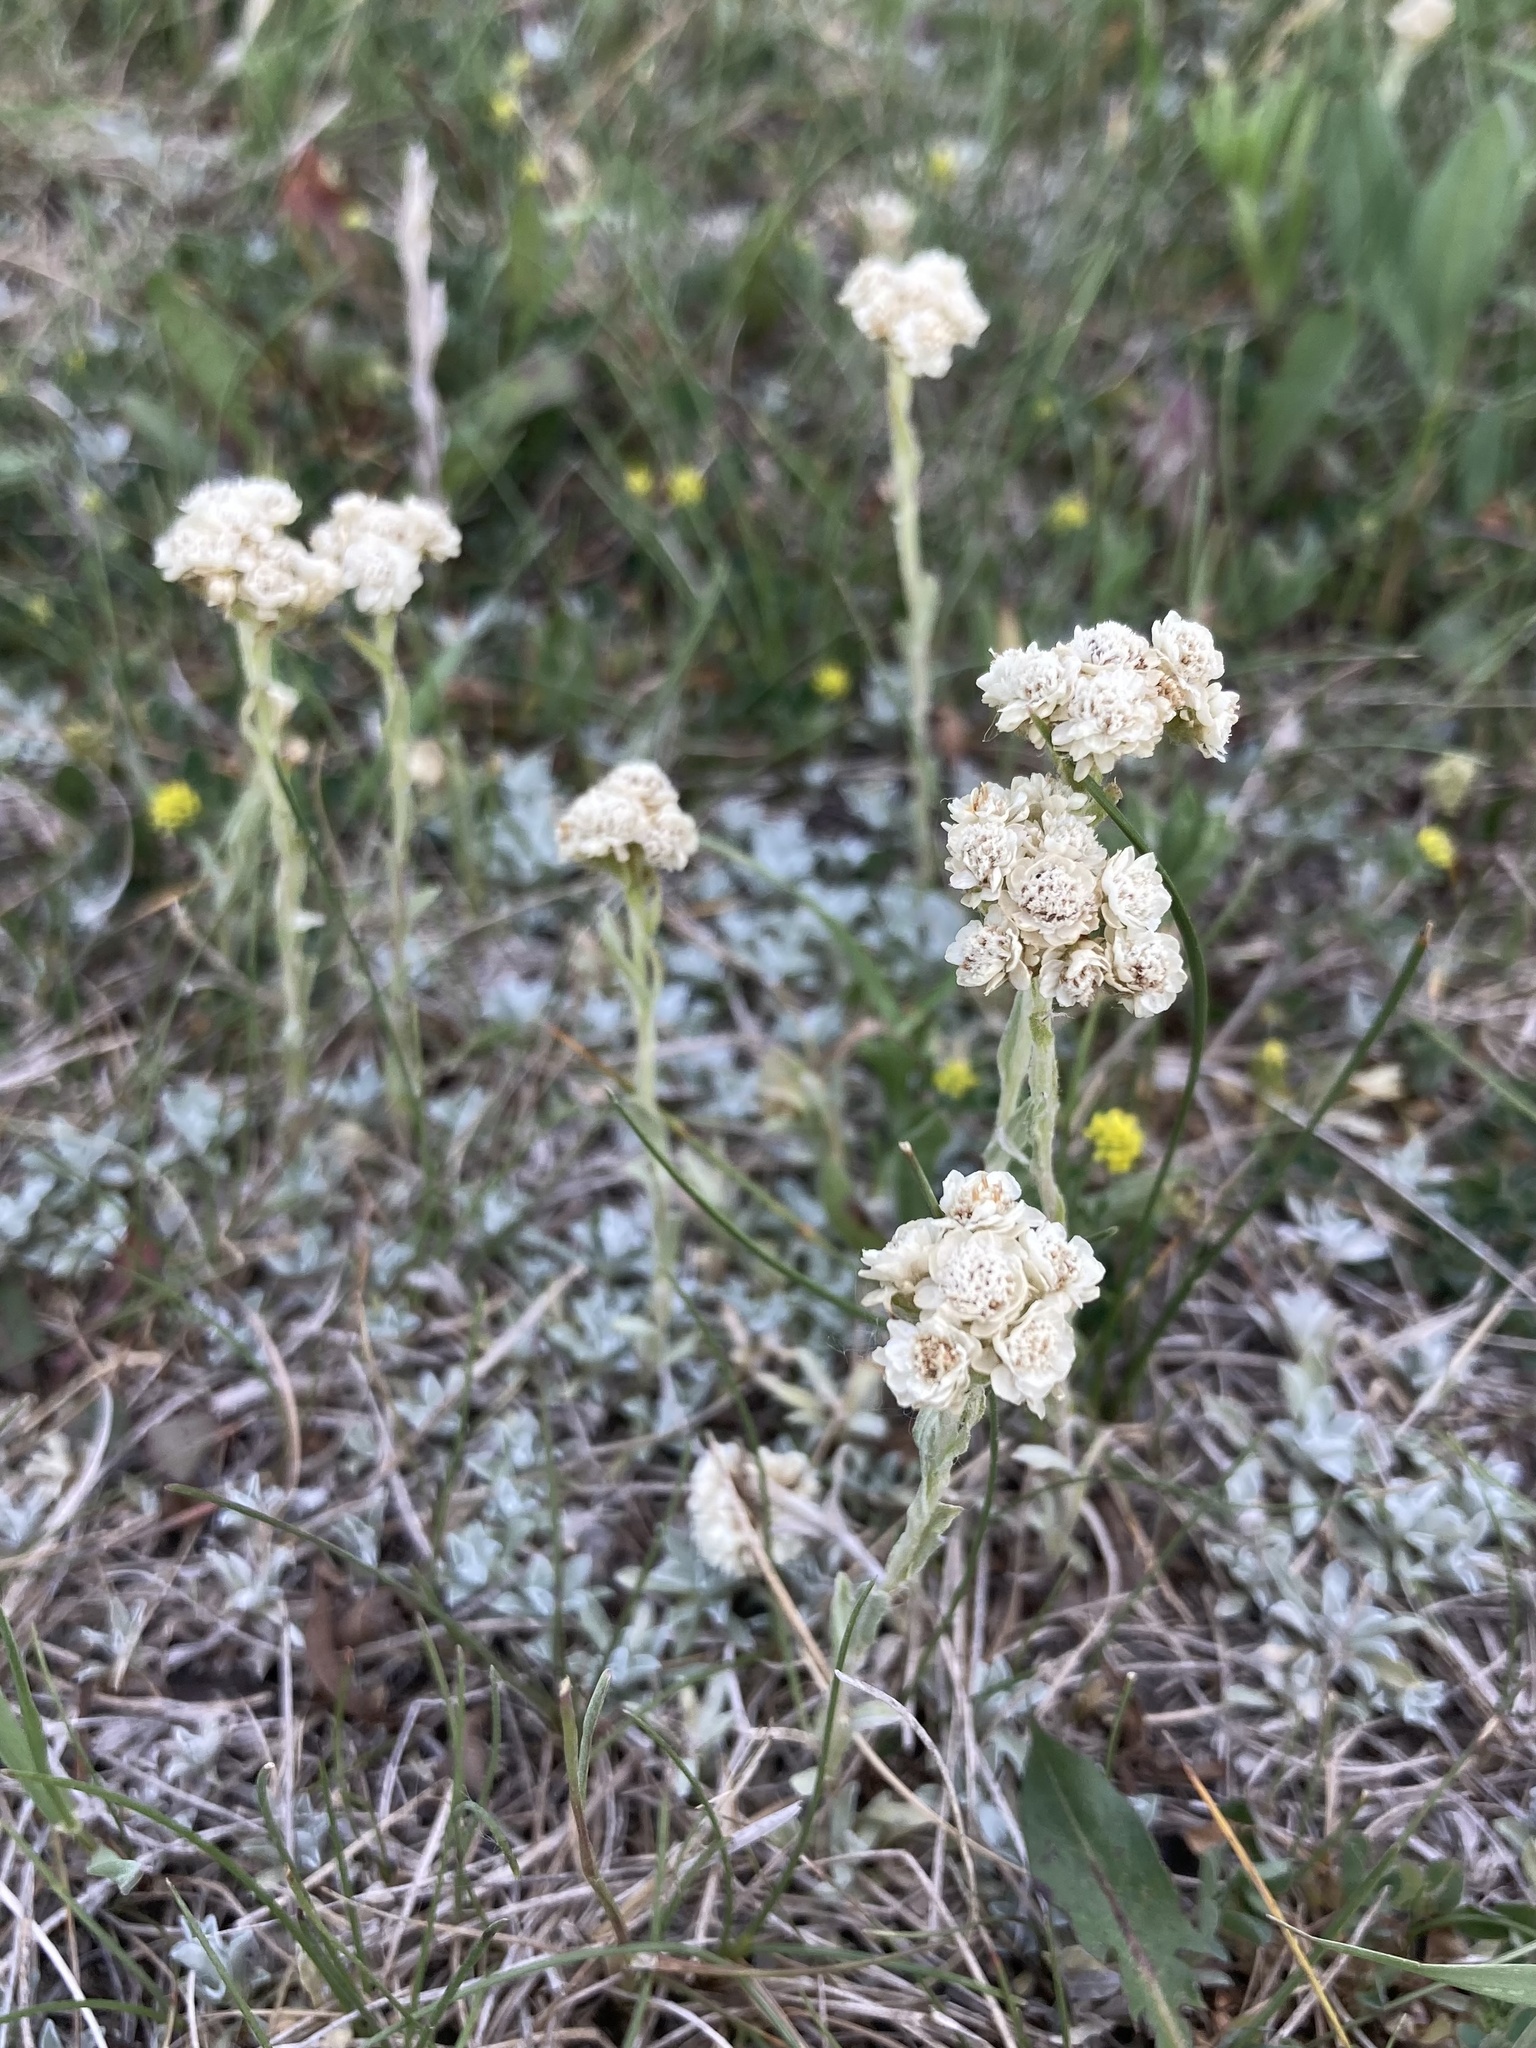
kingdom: Plantae
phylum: Tracheophyta
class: Magnoliopsida
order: Asterales
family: Asteraceae
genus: Antennaria
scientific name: Antennaria microphylla
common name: Littleleaf pussytoes
